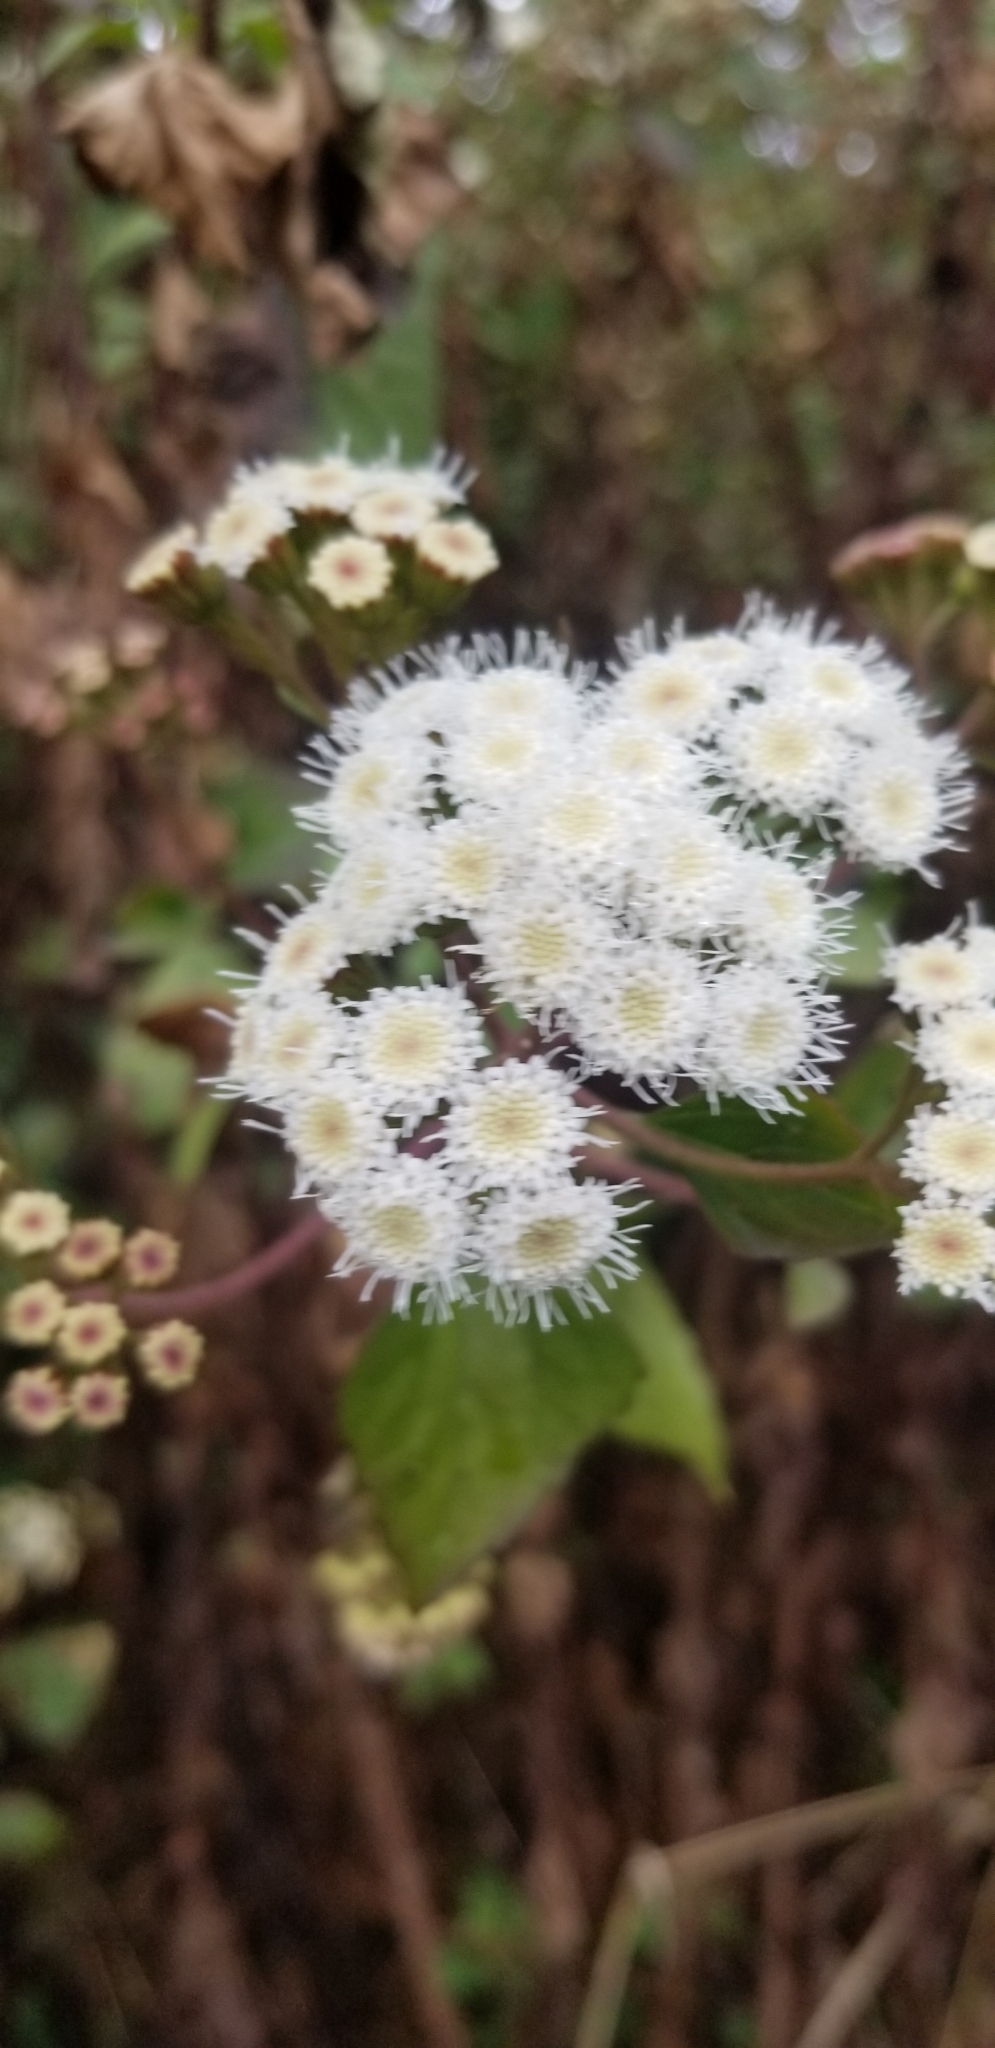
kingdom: Plantae
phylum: Tracheophyta
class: Magnoliopsida
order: Asterales
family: Asteraceae
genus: Ageratina
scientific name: Ageratina adenophora
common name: Sticky snakeroot
